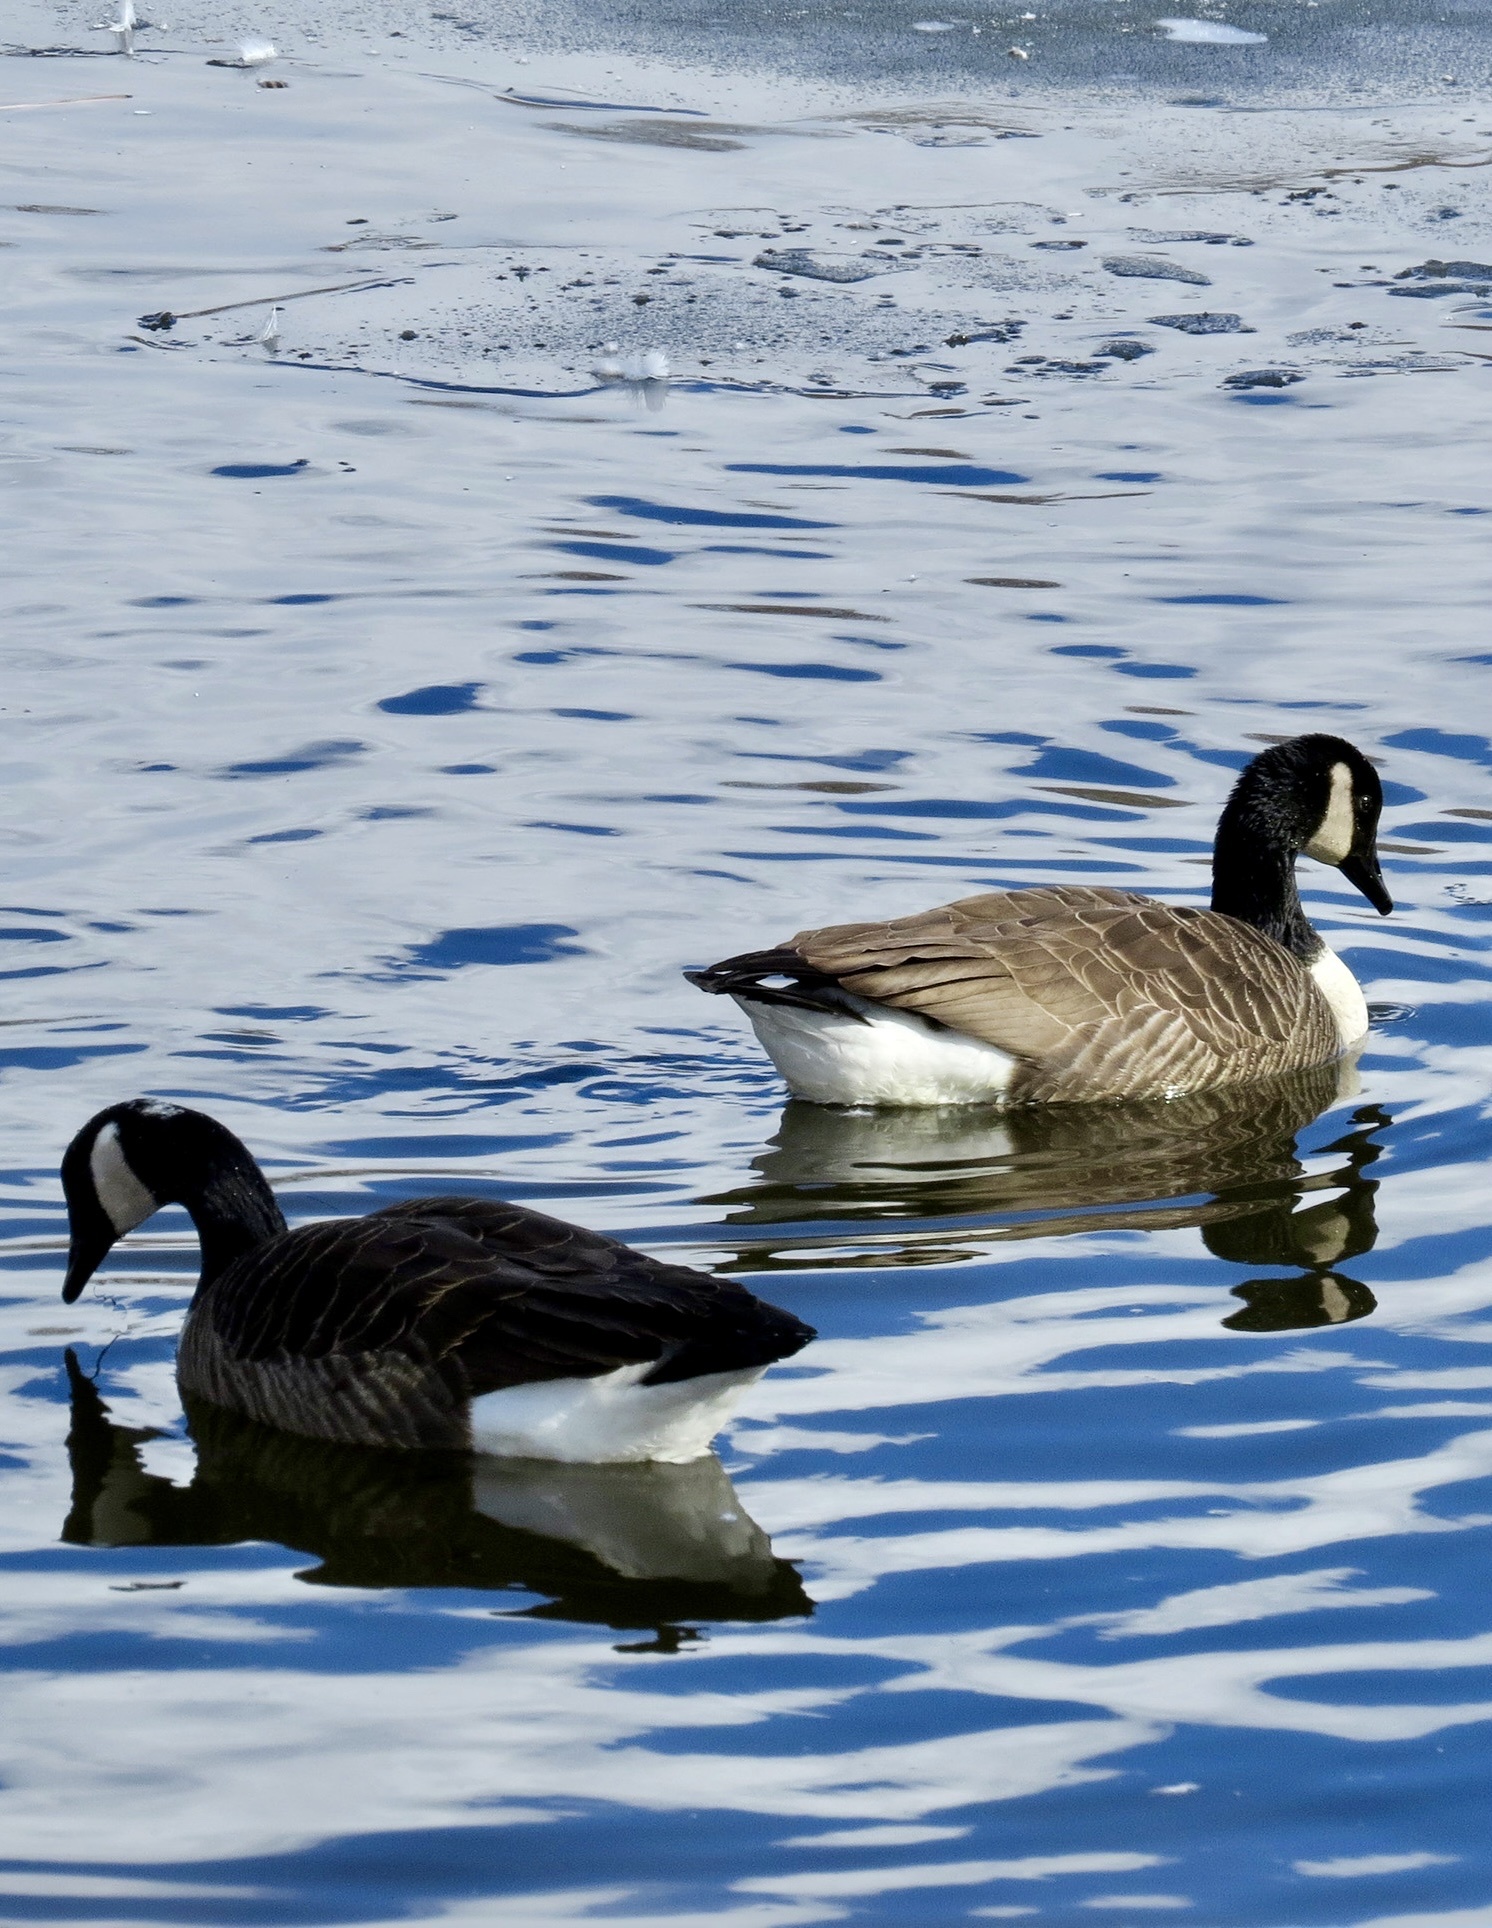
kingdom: Animalia
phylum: Chordata
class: Aves
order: Anseriformes
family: Anatidae
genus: Branta
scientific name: Branta canadensis
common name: Canada goose
